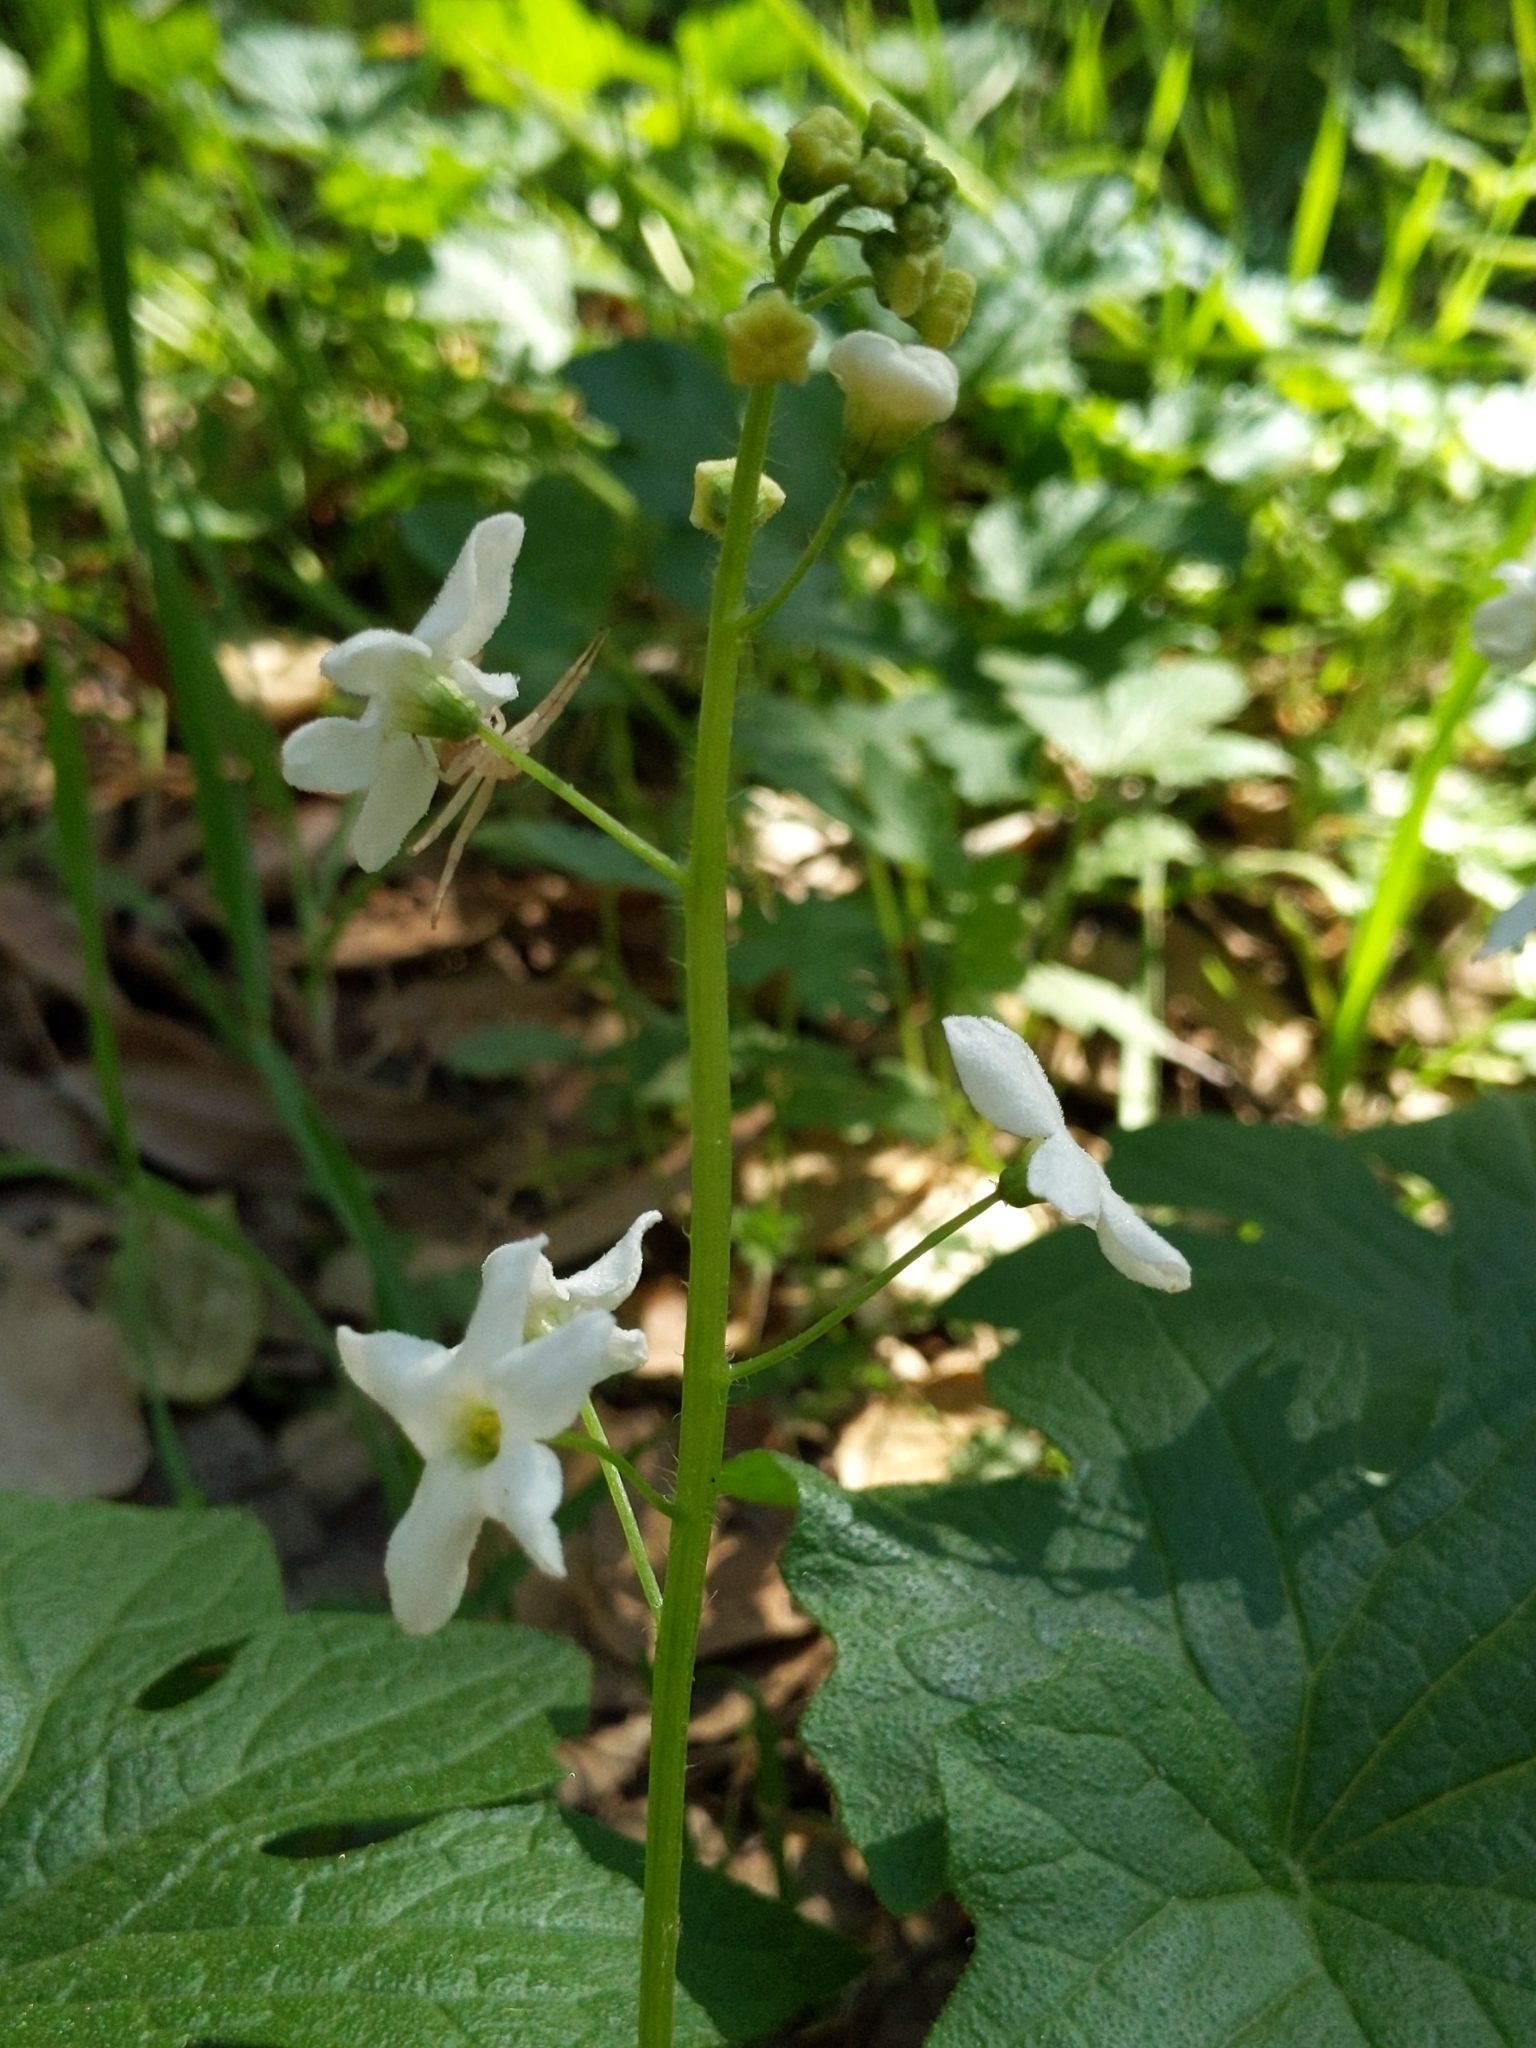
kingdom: Plantae
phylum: Tracheophyta
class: Magnoliopsida
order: Cucurbitales
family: Cucurbitaceae
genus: Marah
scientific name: Marah oregana
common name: Coastal manroot
